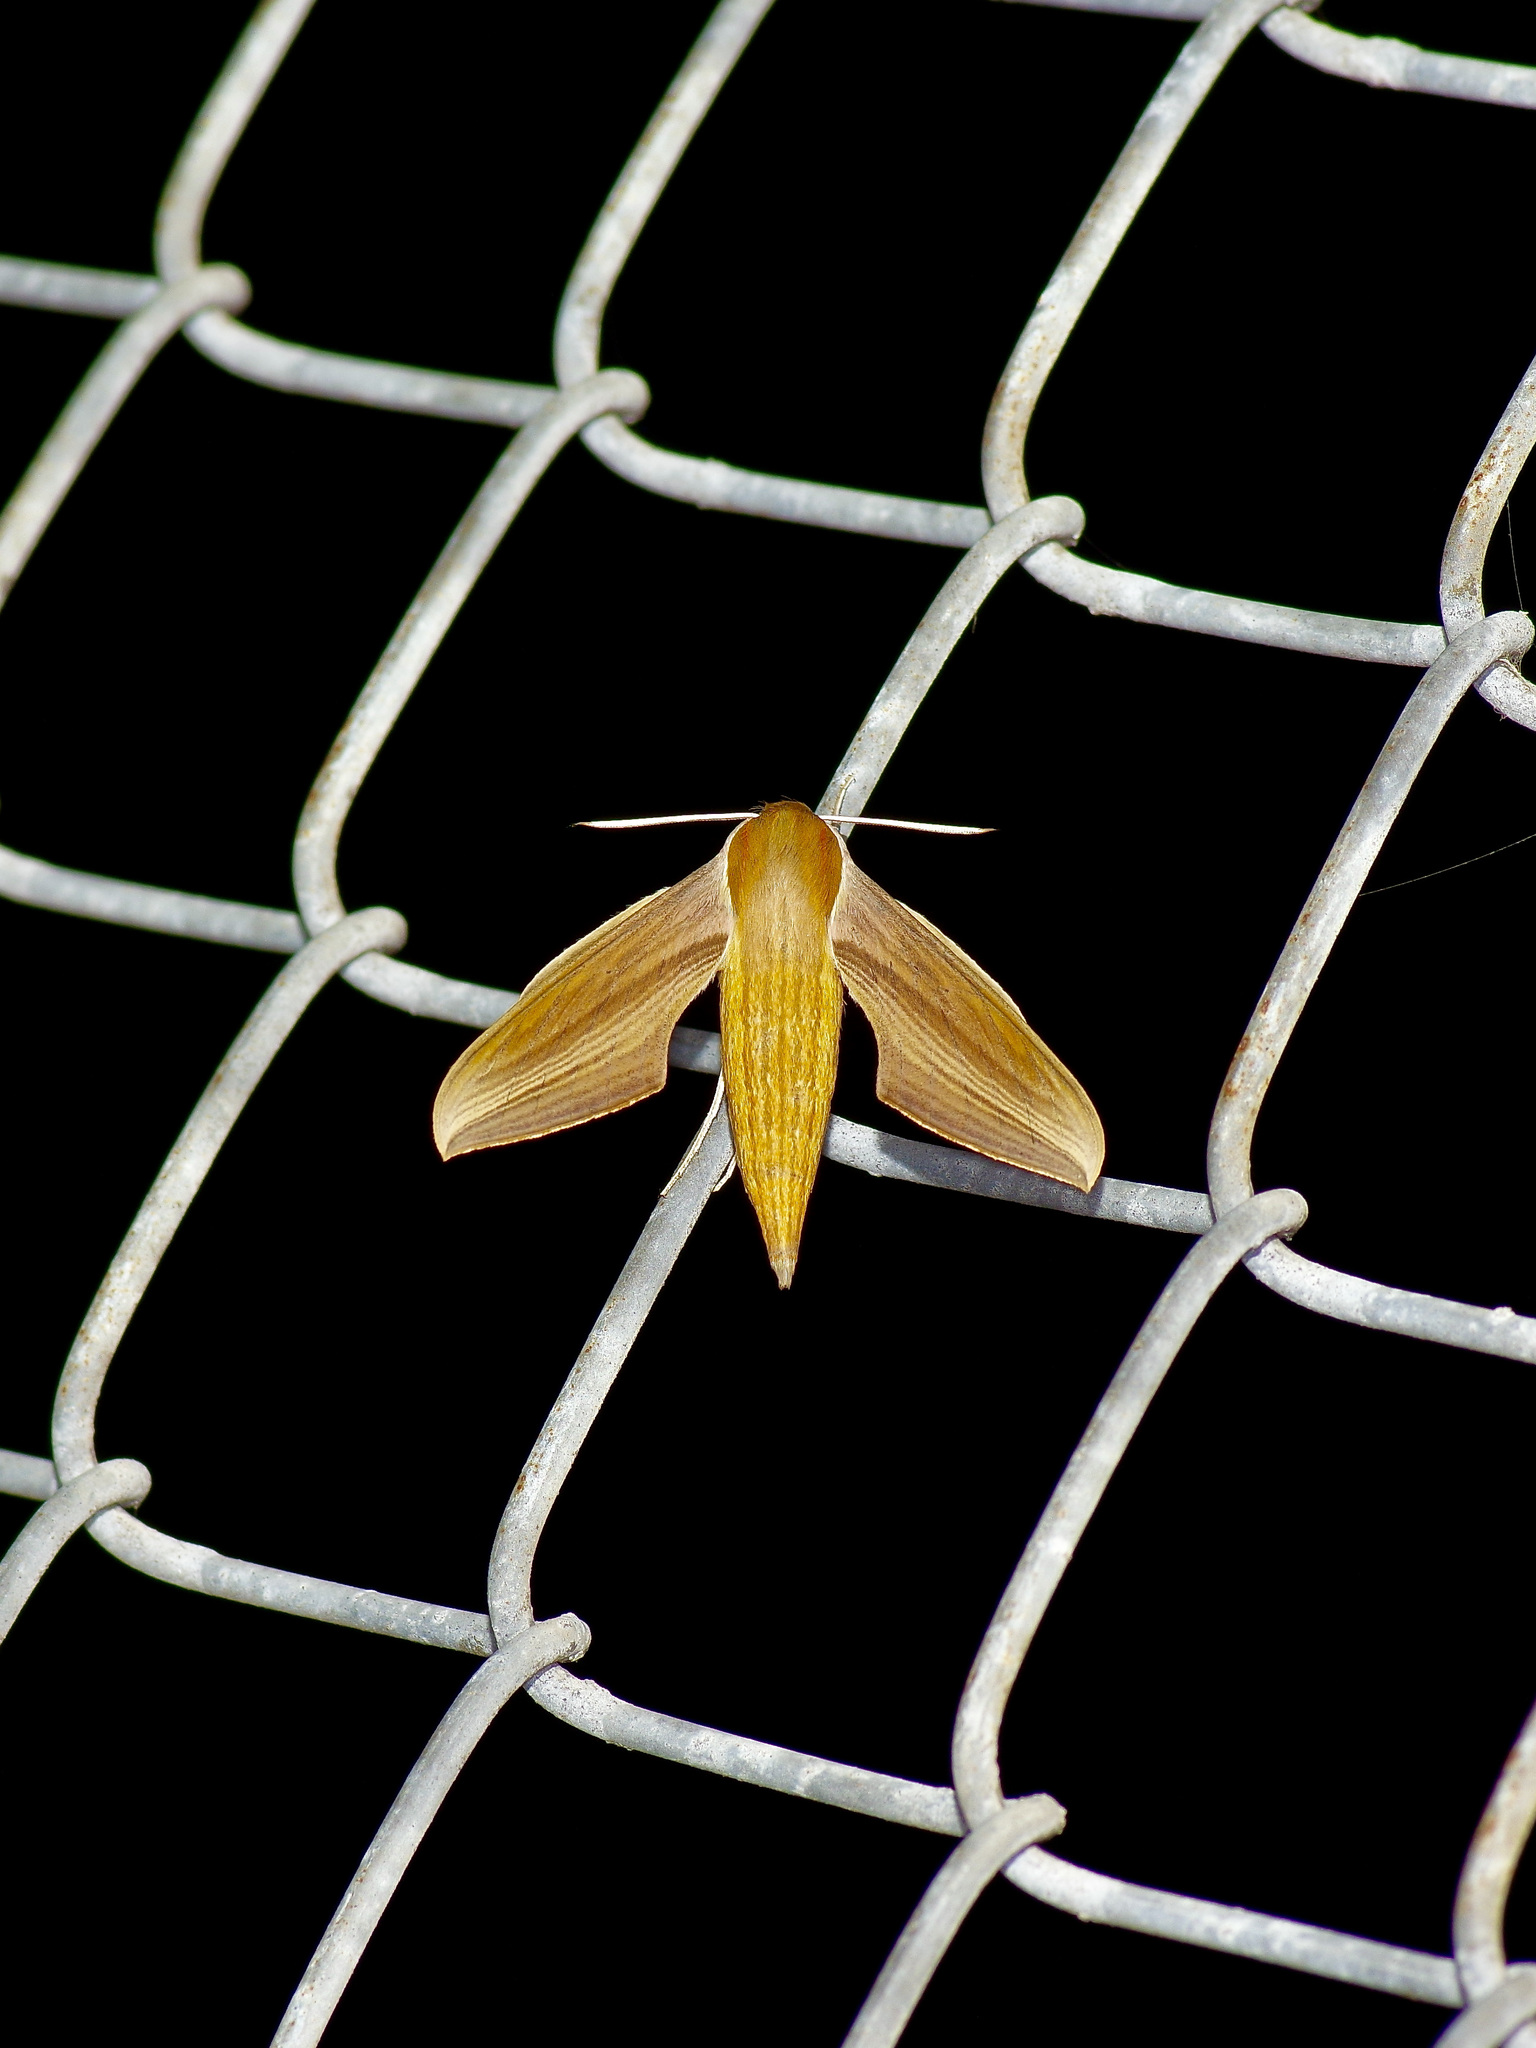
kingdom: Animalia
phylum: Arthropoda
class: Insecta
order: Lepidoptera
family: Sphingidae
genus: Xylophanes
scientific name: Xylophanes tersa
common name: Tersa sphinx
